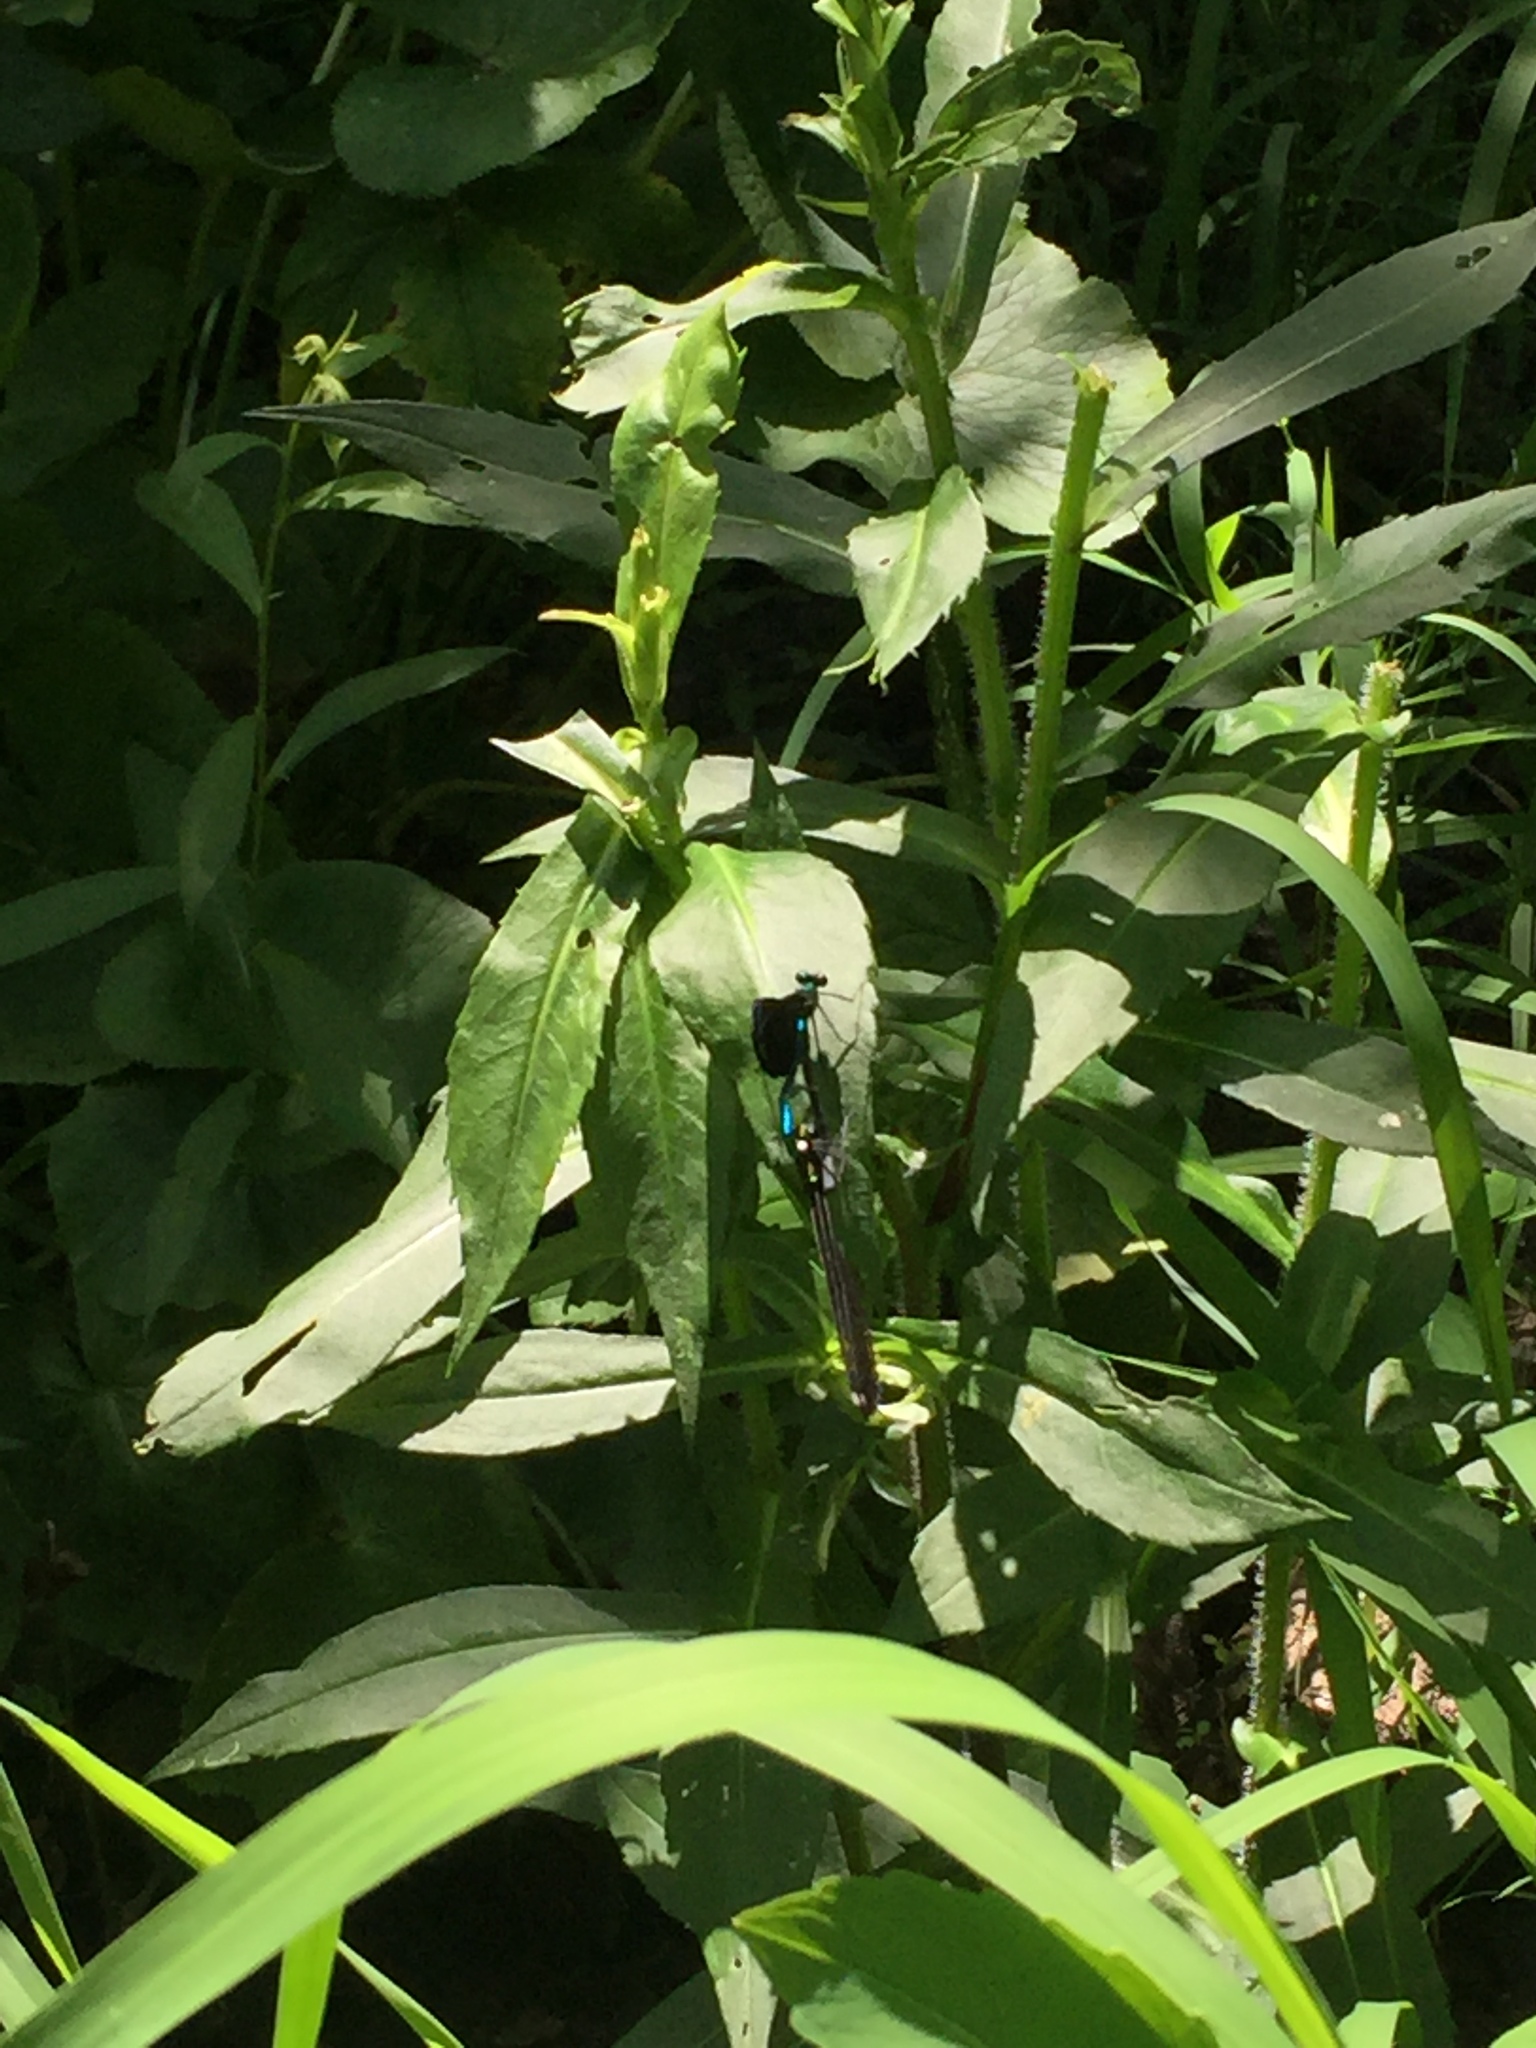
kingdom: Animalia
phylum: Arthropoda
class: Insecta
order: Odonata
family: Calopterygidae
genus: Calopteryx
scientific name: Calopteryx maculata
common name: Ebony jewelwing
